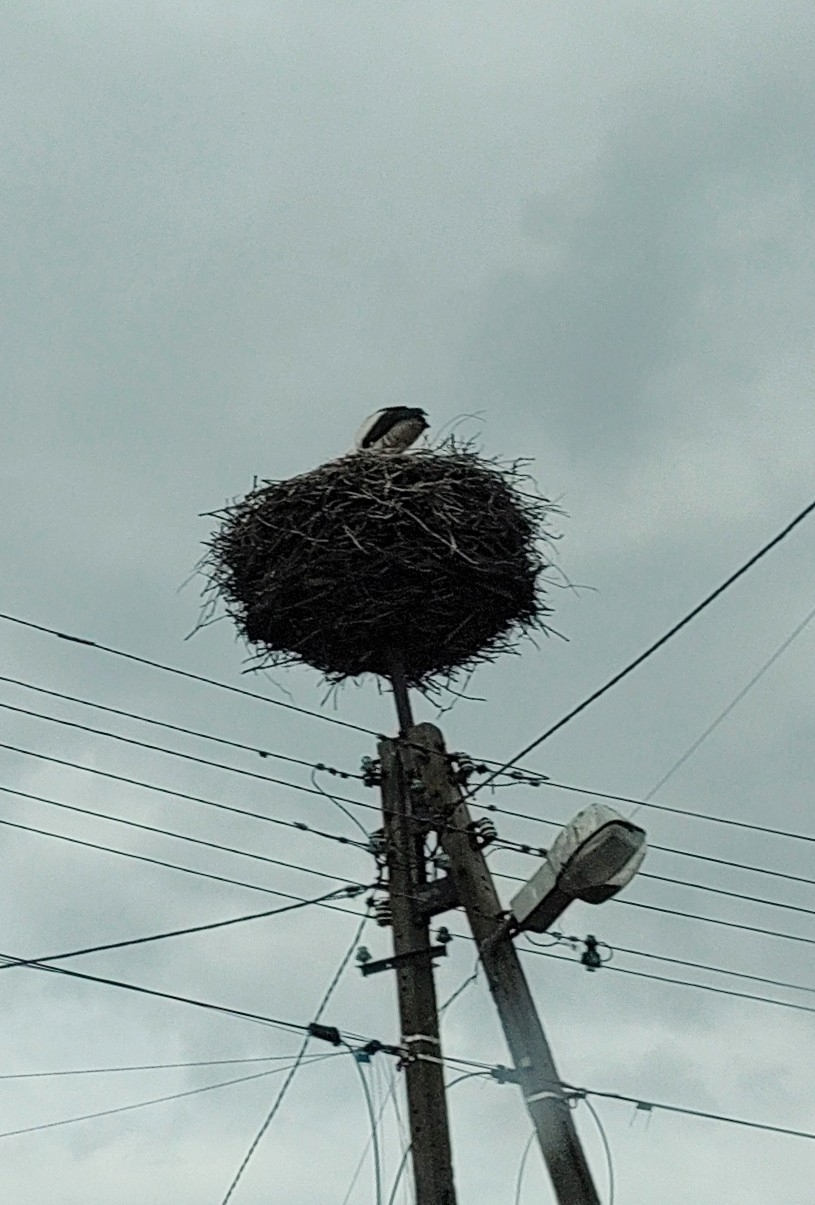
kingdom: Animalia
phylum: Chordata
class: Aves
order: Ciconiiformes
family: Ciconiidae
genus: Ciconia
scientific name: Ciconia ciconia
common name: White stork
